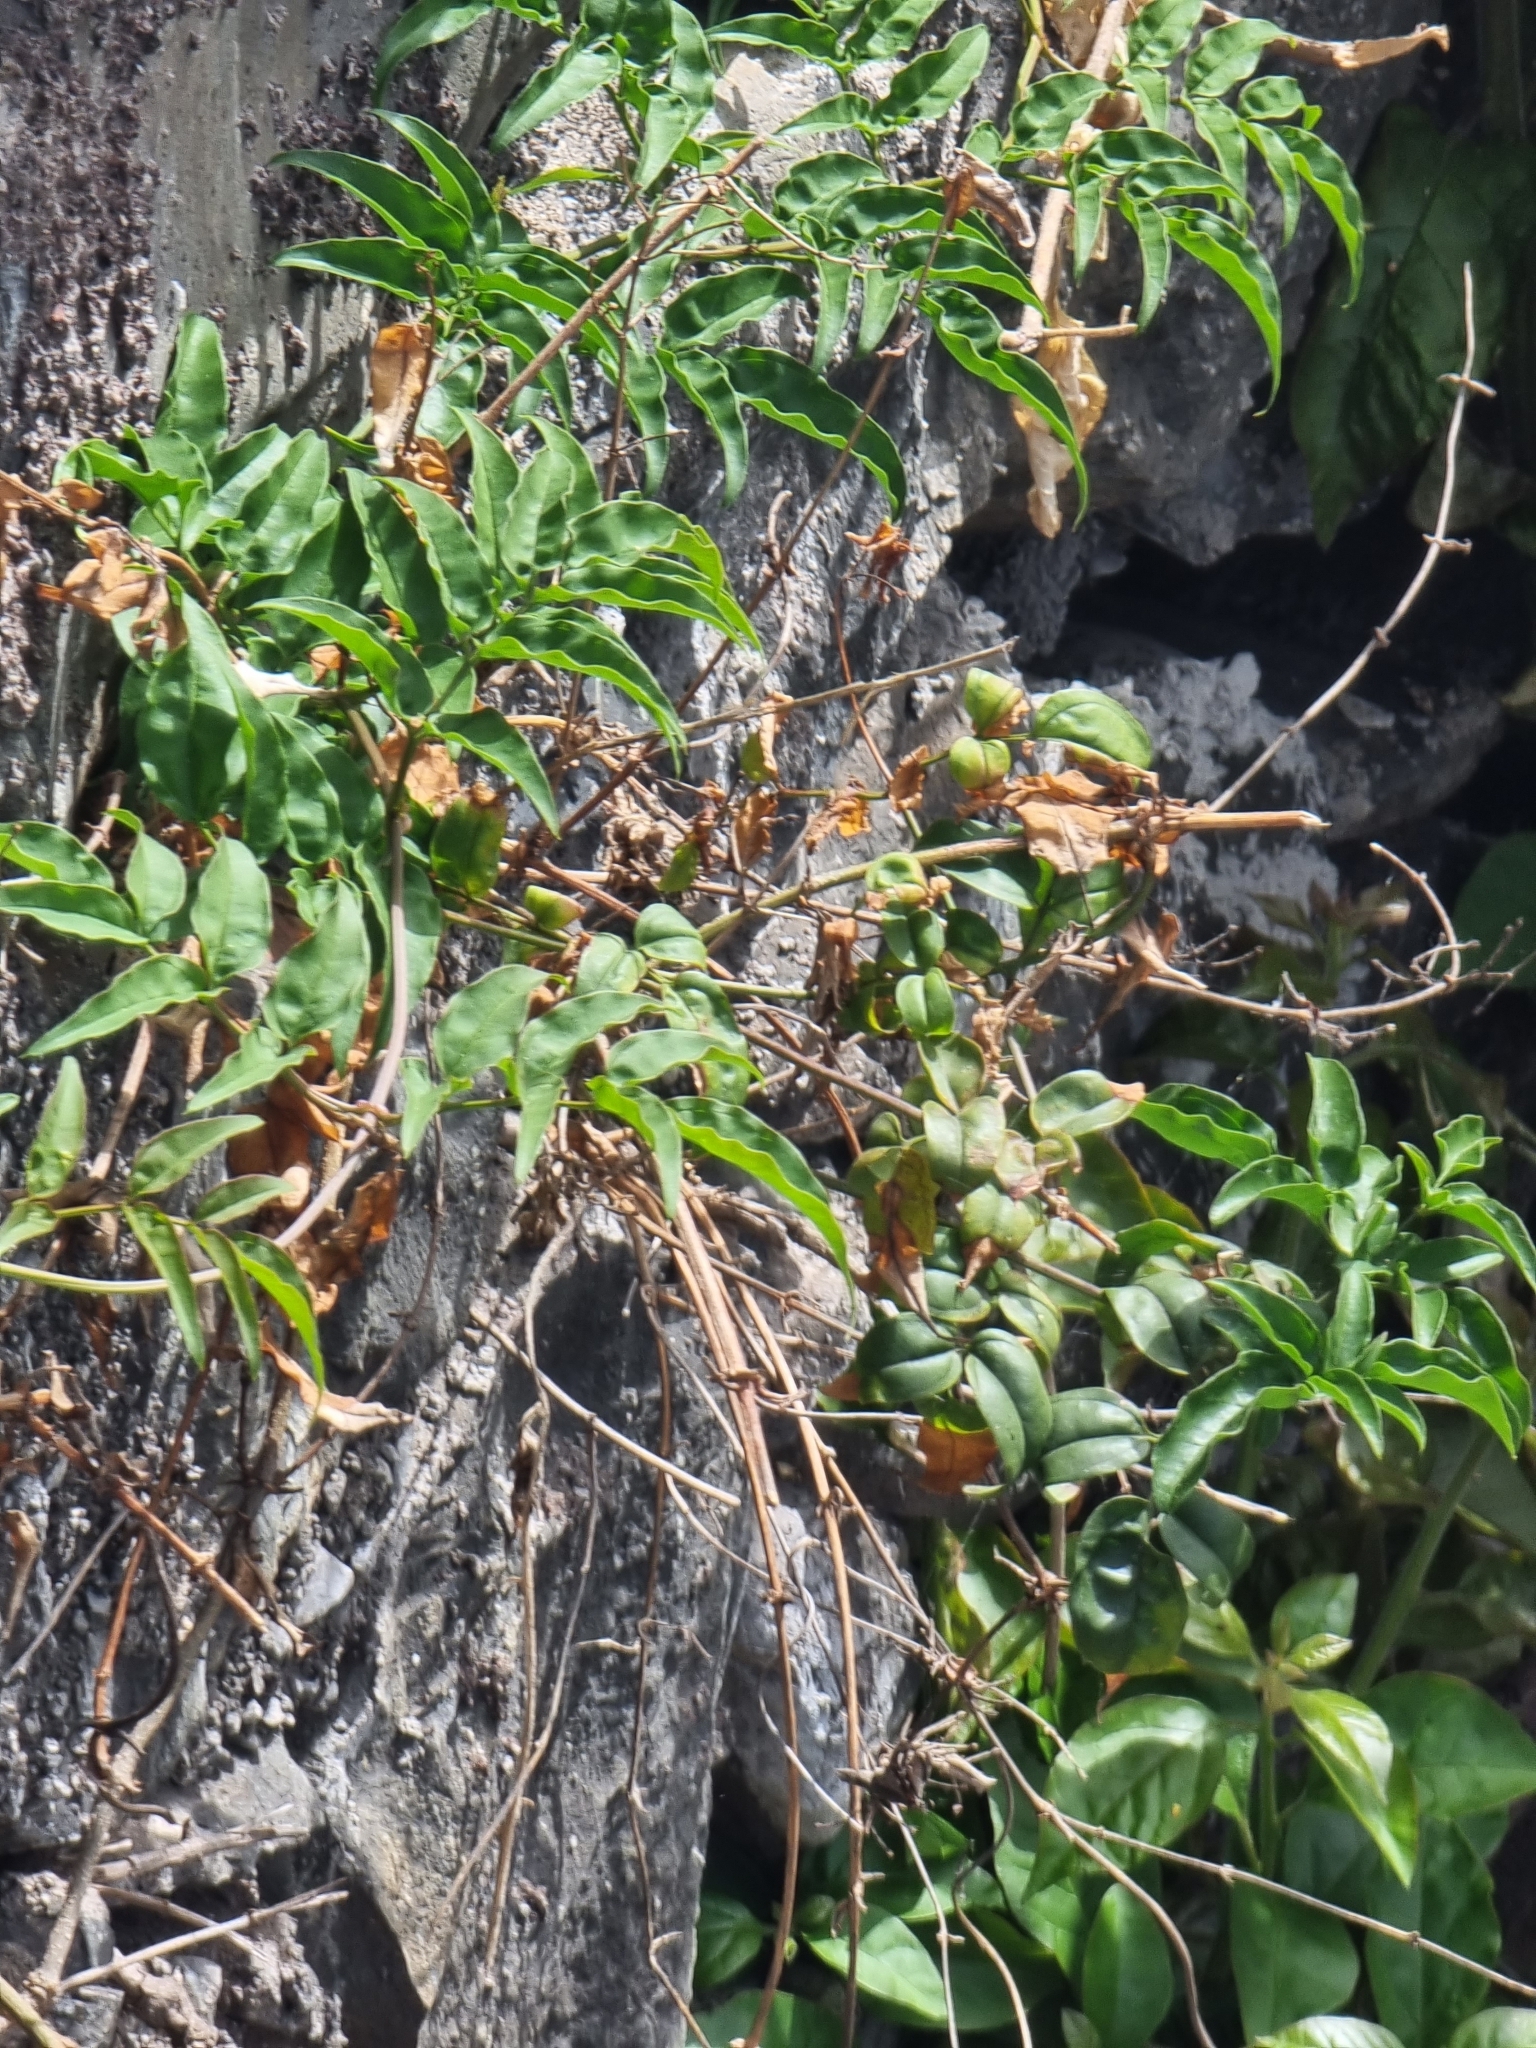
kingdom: Plantae
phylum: Tracheophyta
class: Magnoliopsida
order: Lamiales
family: Oleaceae
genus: Jasminum
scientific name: Jasminum polyanthum
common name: Pink jasmine
